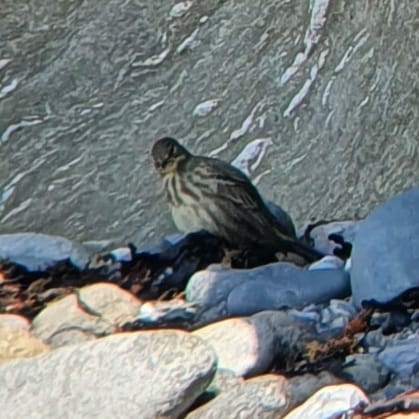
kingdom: Animalia
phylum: Chordata
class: Aves
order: Passeriformes
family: Motacillidae
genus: Anthus
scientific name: Anthus petrosus
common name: Eurasian rock pipit
